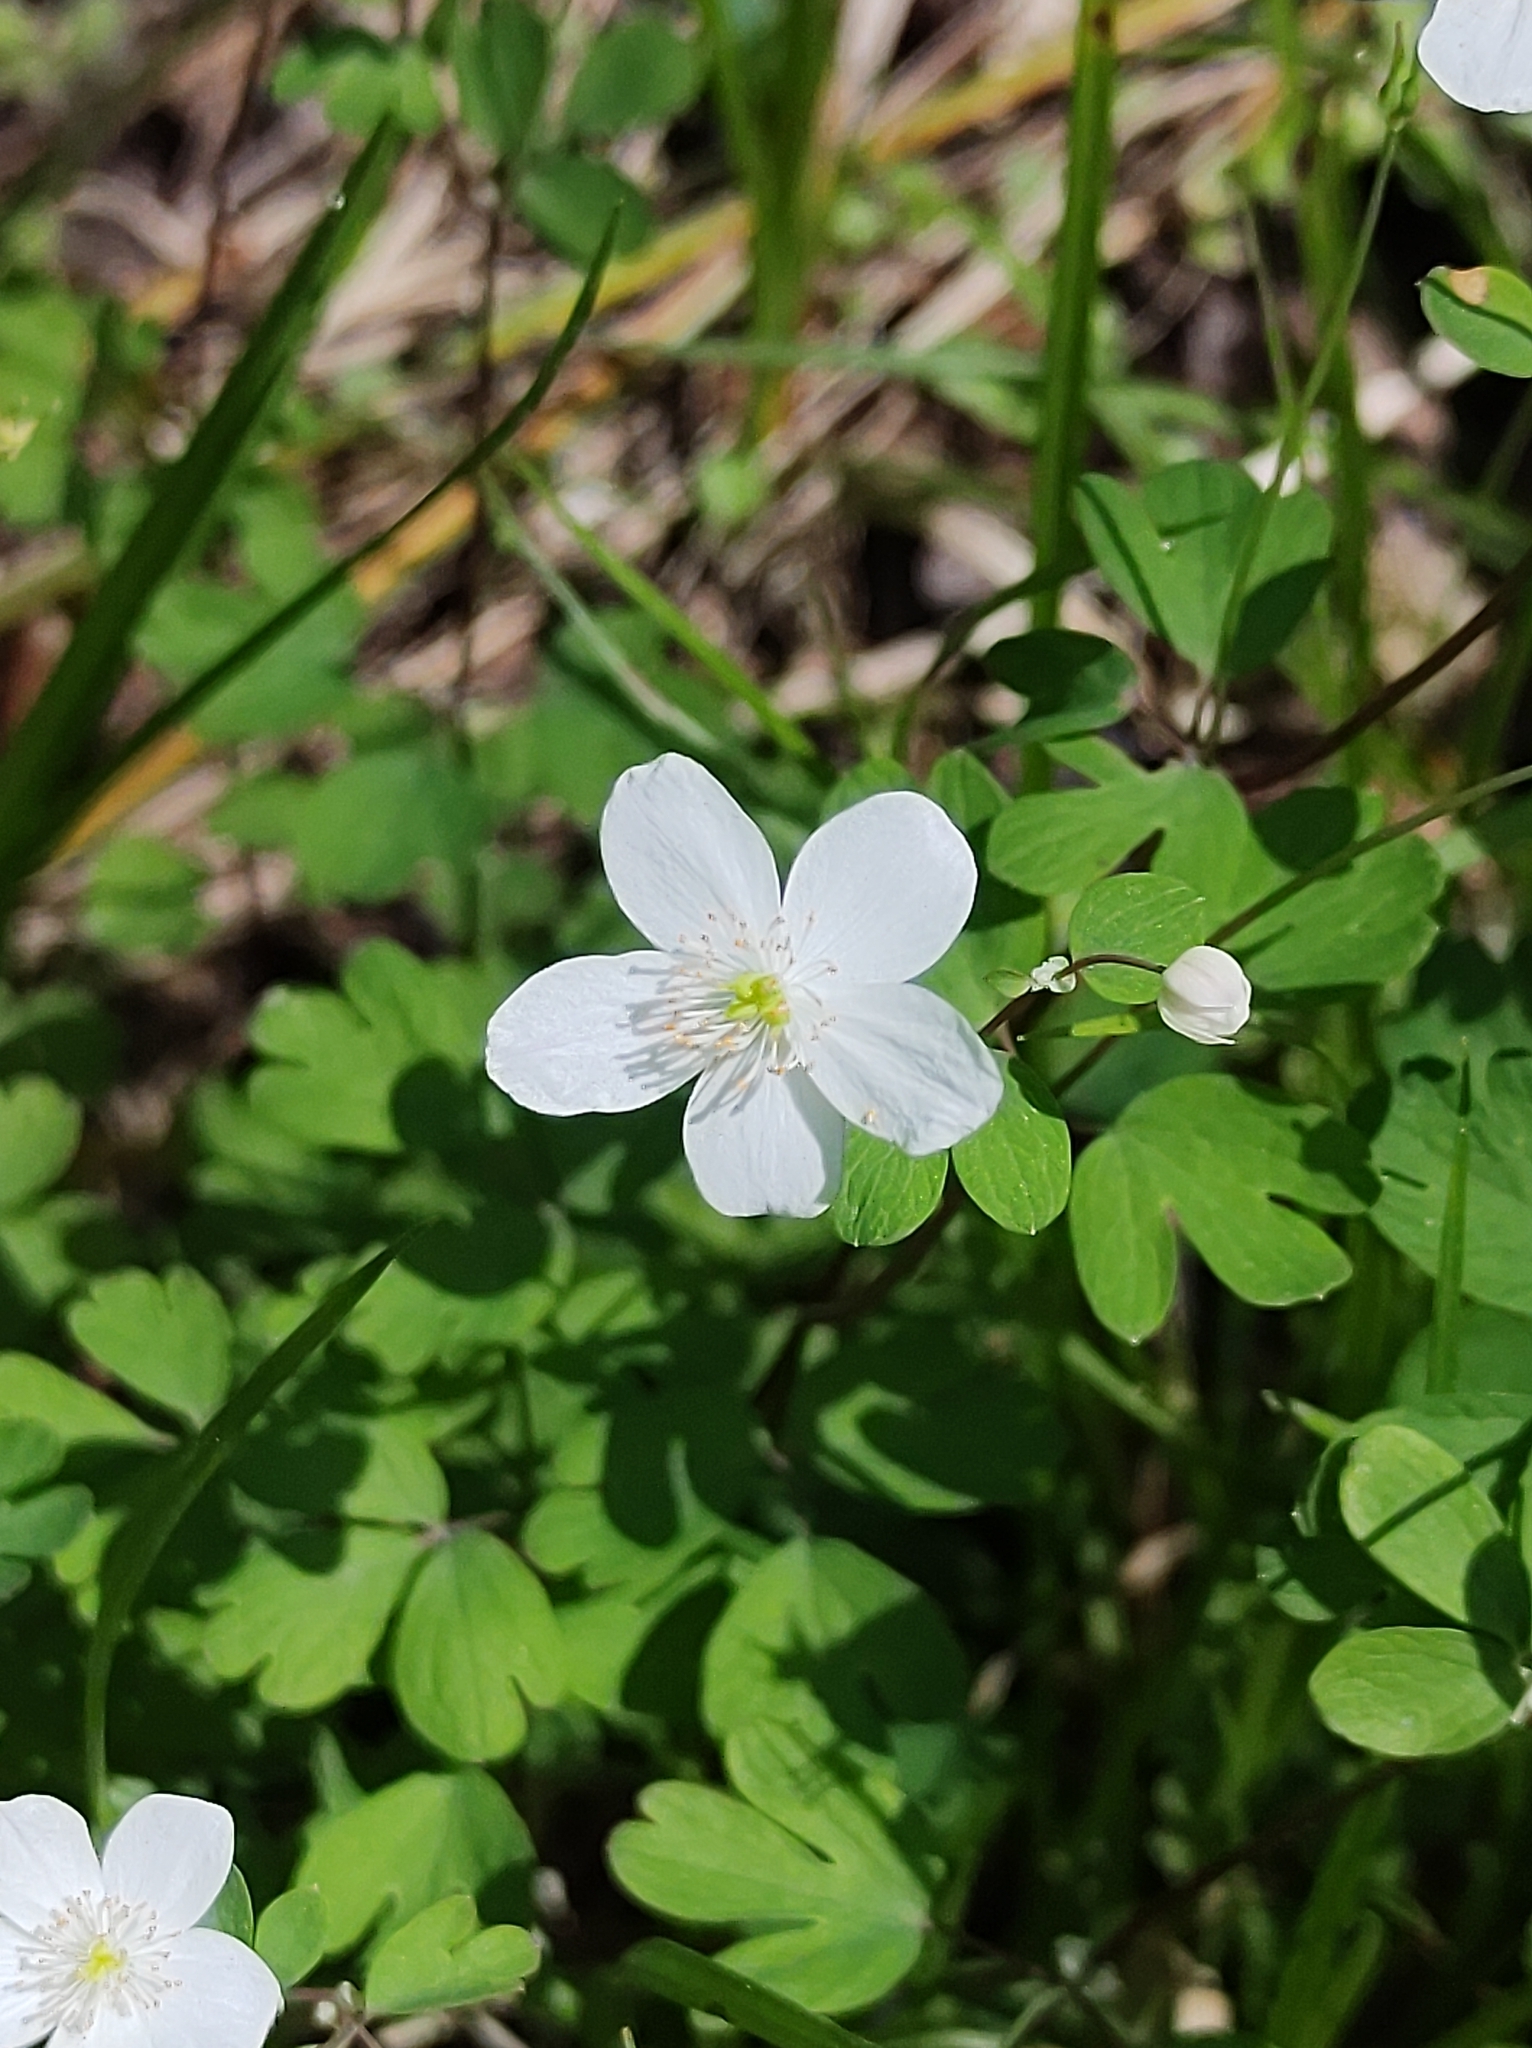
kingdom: Plantae
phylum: Tracheophyta
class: Magnoliopsida
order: Ranunculales
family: Ranunculaceae
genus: Anemone
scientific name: Anemone quinquefolia
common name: Wood anemone
